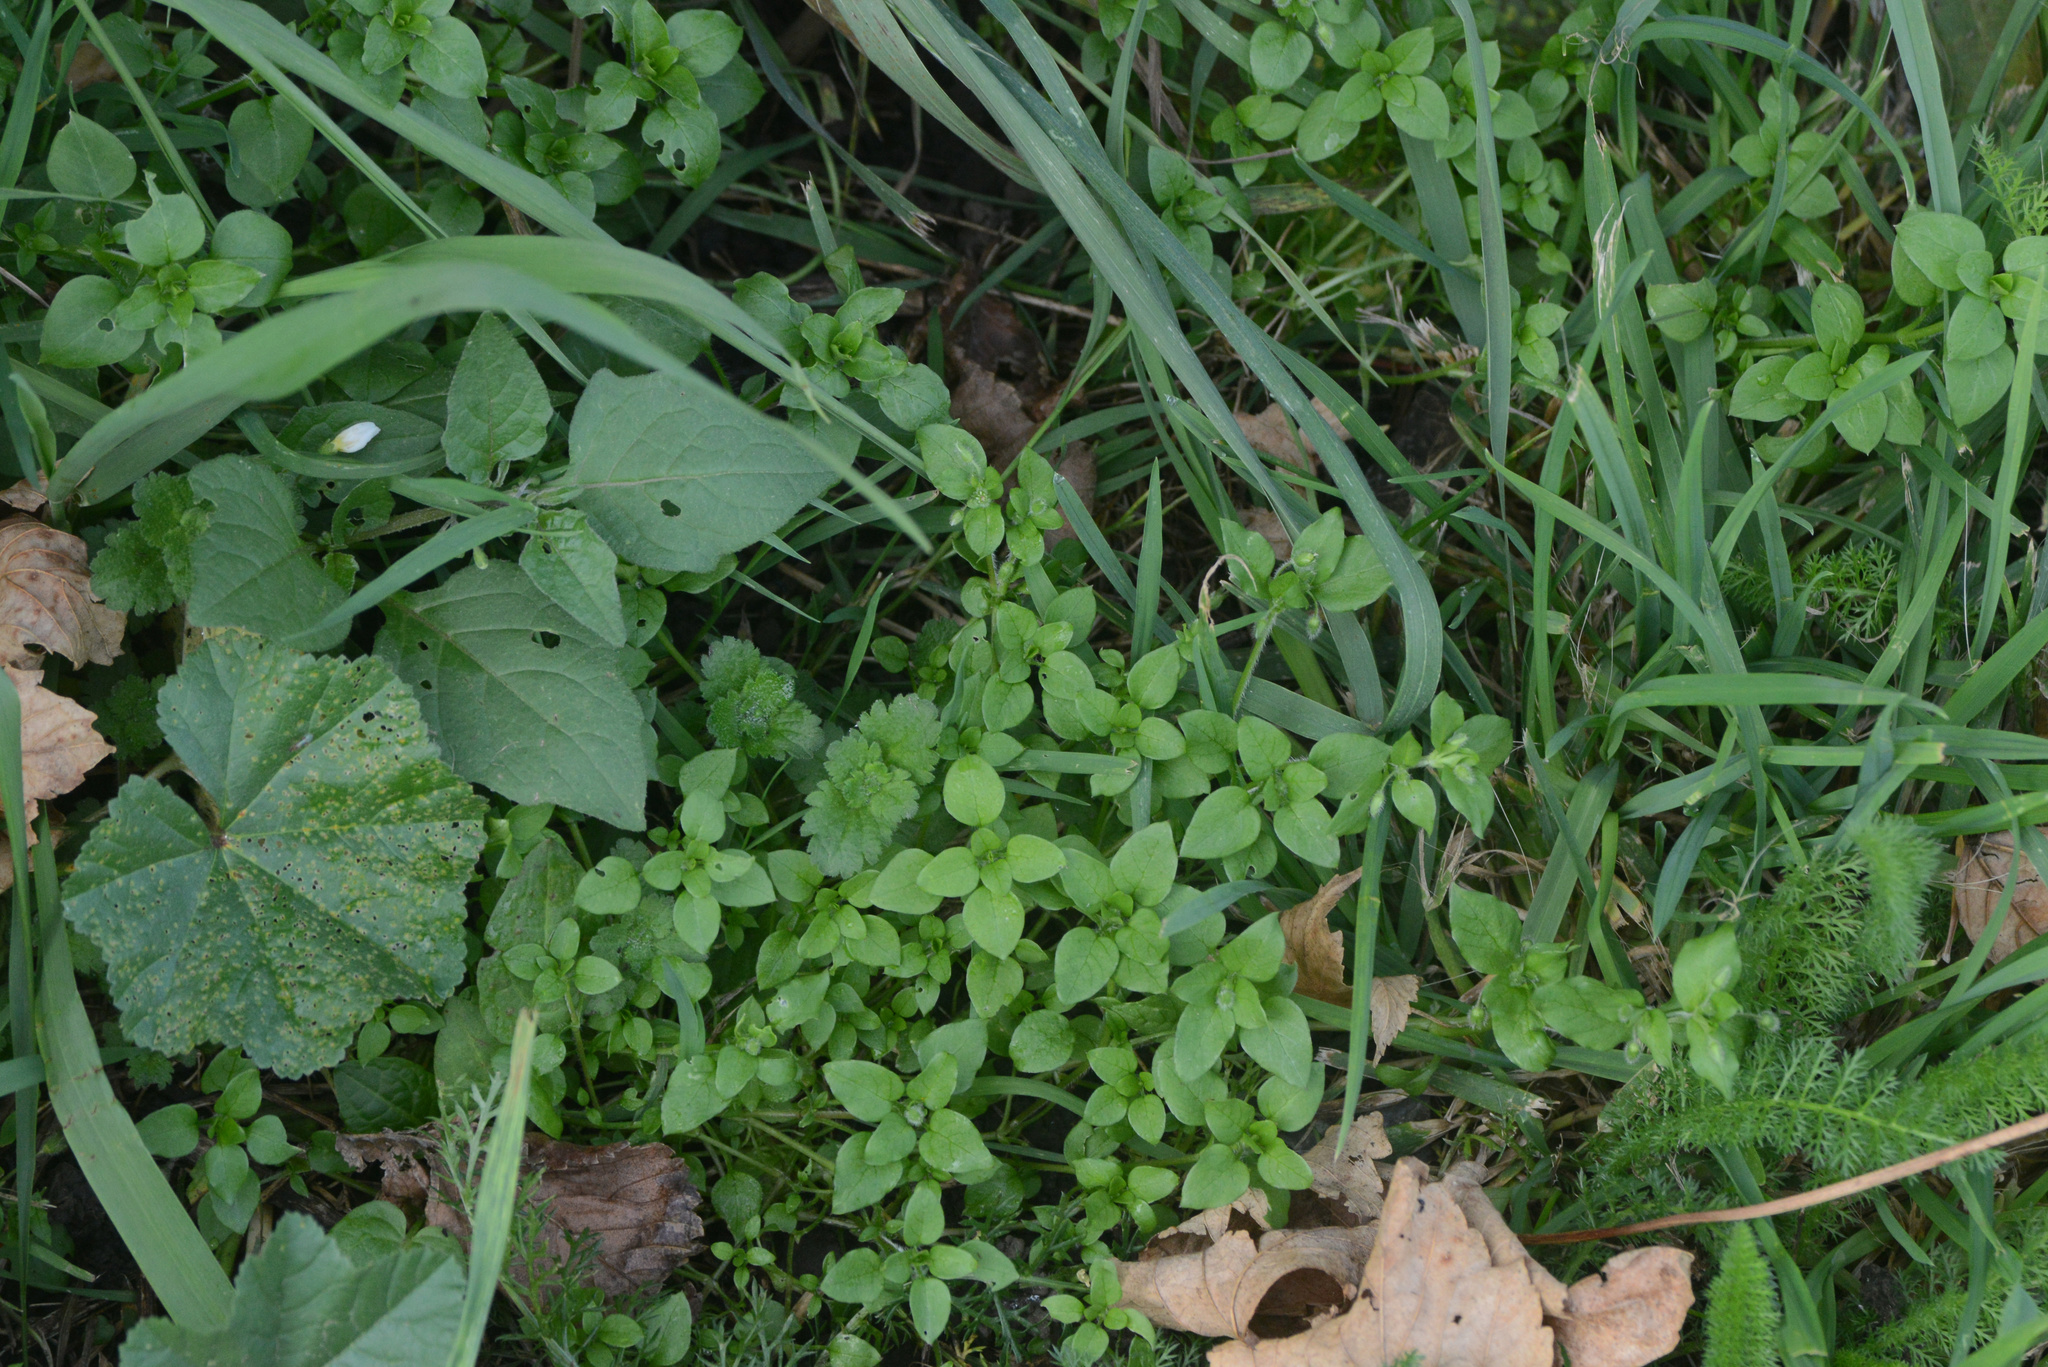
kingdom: Plantae
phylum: Tracheophyta
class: Magnoliopsida
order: Caryophyllales
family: Caryophyllaceae
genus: Stellaria
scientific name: Stellaria media
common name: Common chickweed
